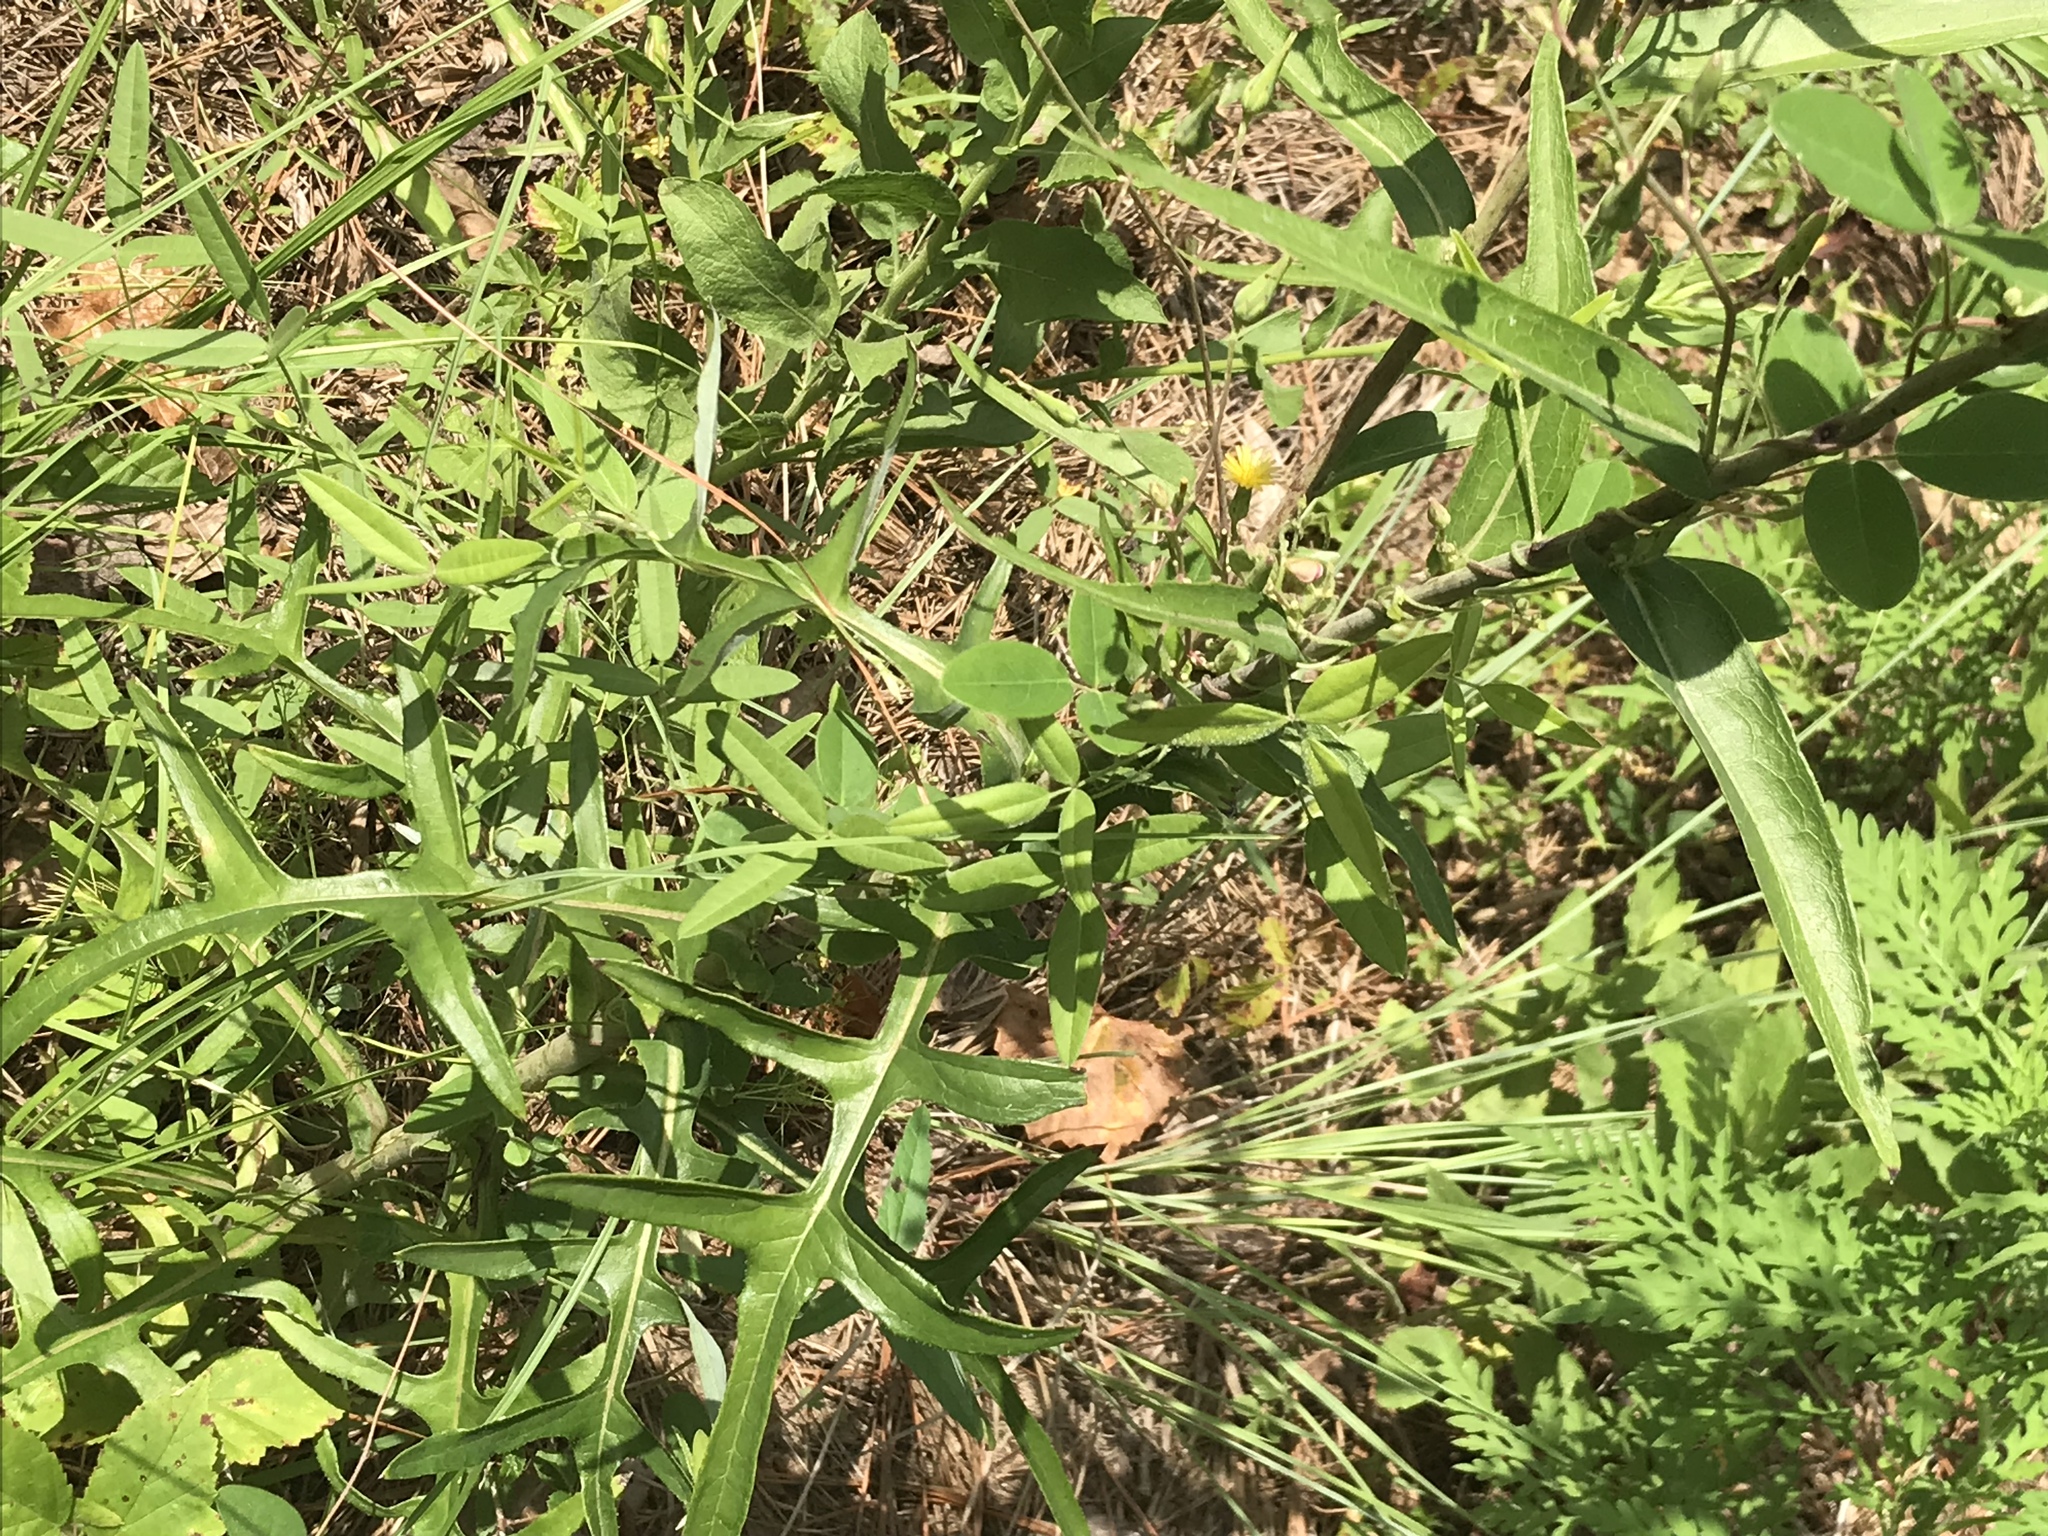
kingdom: Plantae
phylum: Tracheophyta
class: Magnoliopsida
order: Asterales
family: Asteraceae
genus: Lactuca
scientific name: Lactuca canadensis
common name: Canada lettuce
